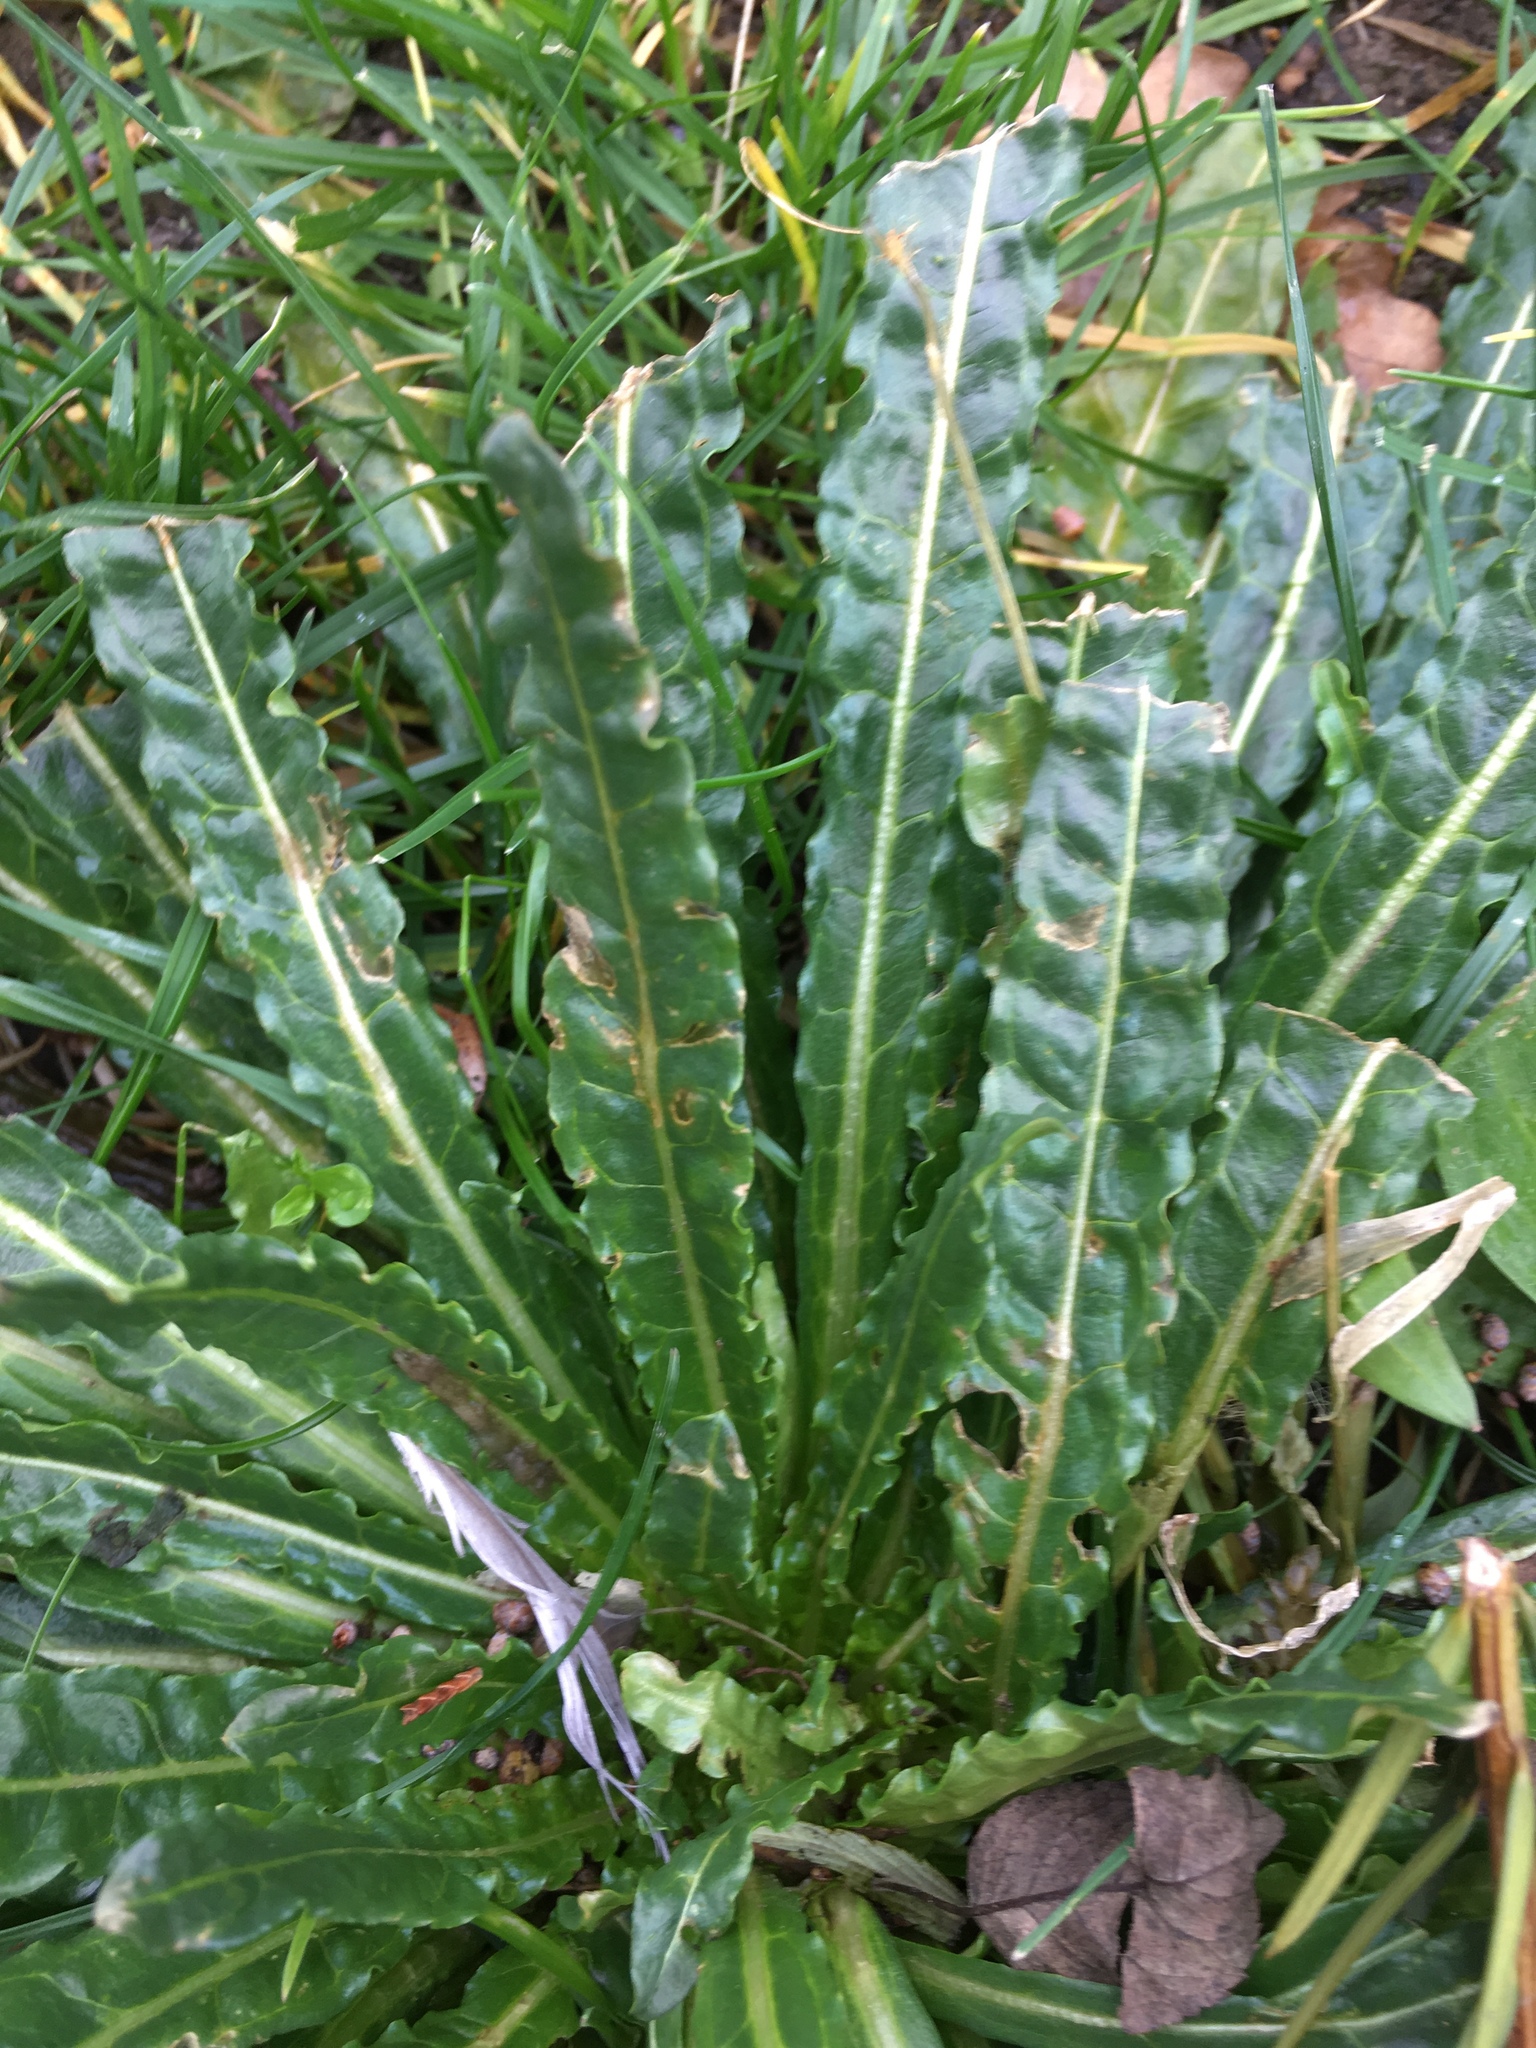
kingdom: Plantae
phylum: Tracheophyta
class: Magnoliopsida
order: Brassicales
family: Resedaceae
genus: Reseda
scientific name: Reseda luteola
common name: Weld
